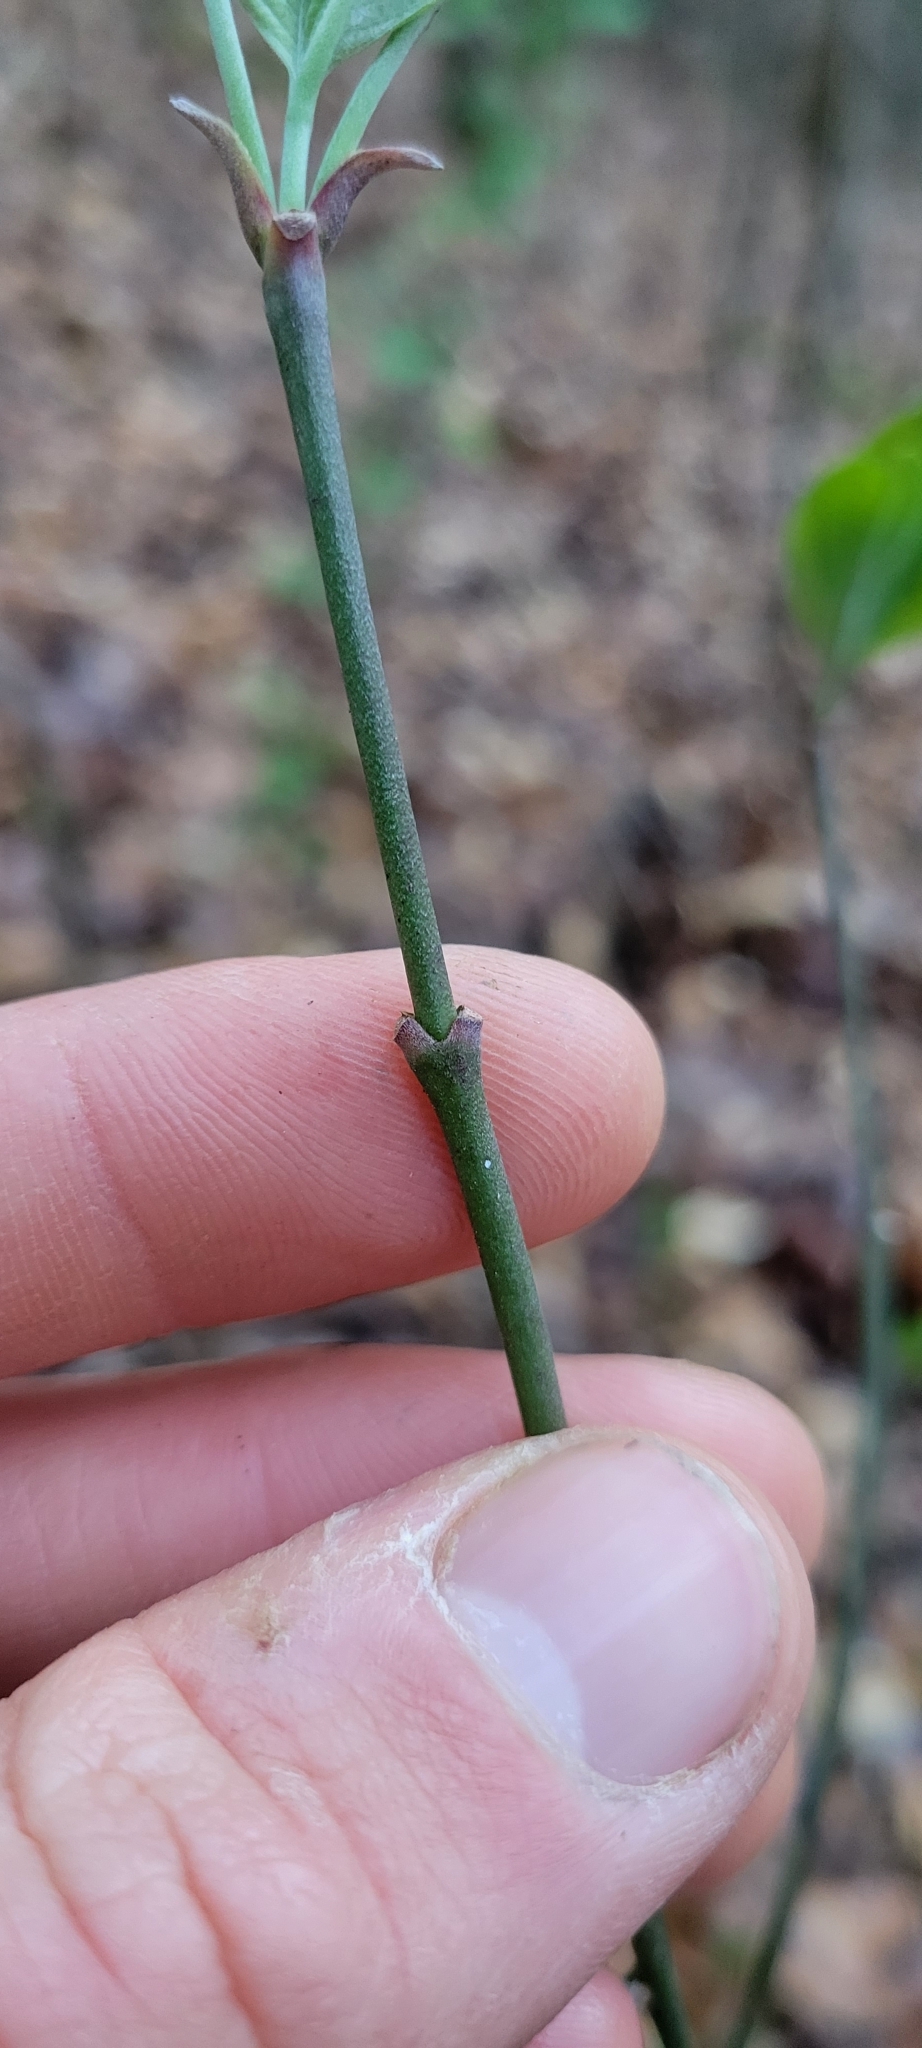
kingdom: Plantae
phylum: Tracheophyta
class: Magnoliopsida
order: Cornales
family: Cornaceae
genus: Cornus
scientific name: Cornus florida
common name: Flowering dogwood
